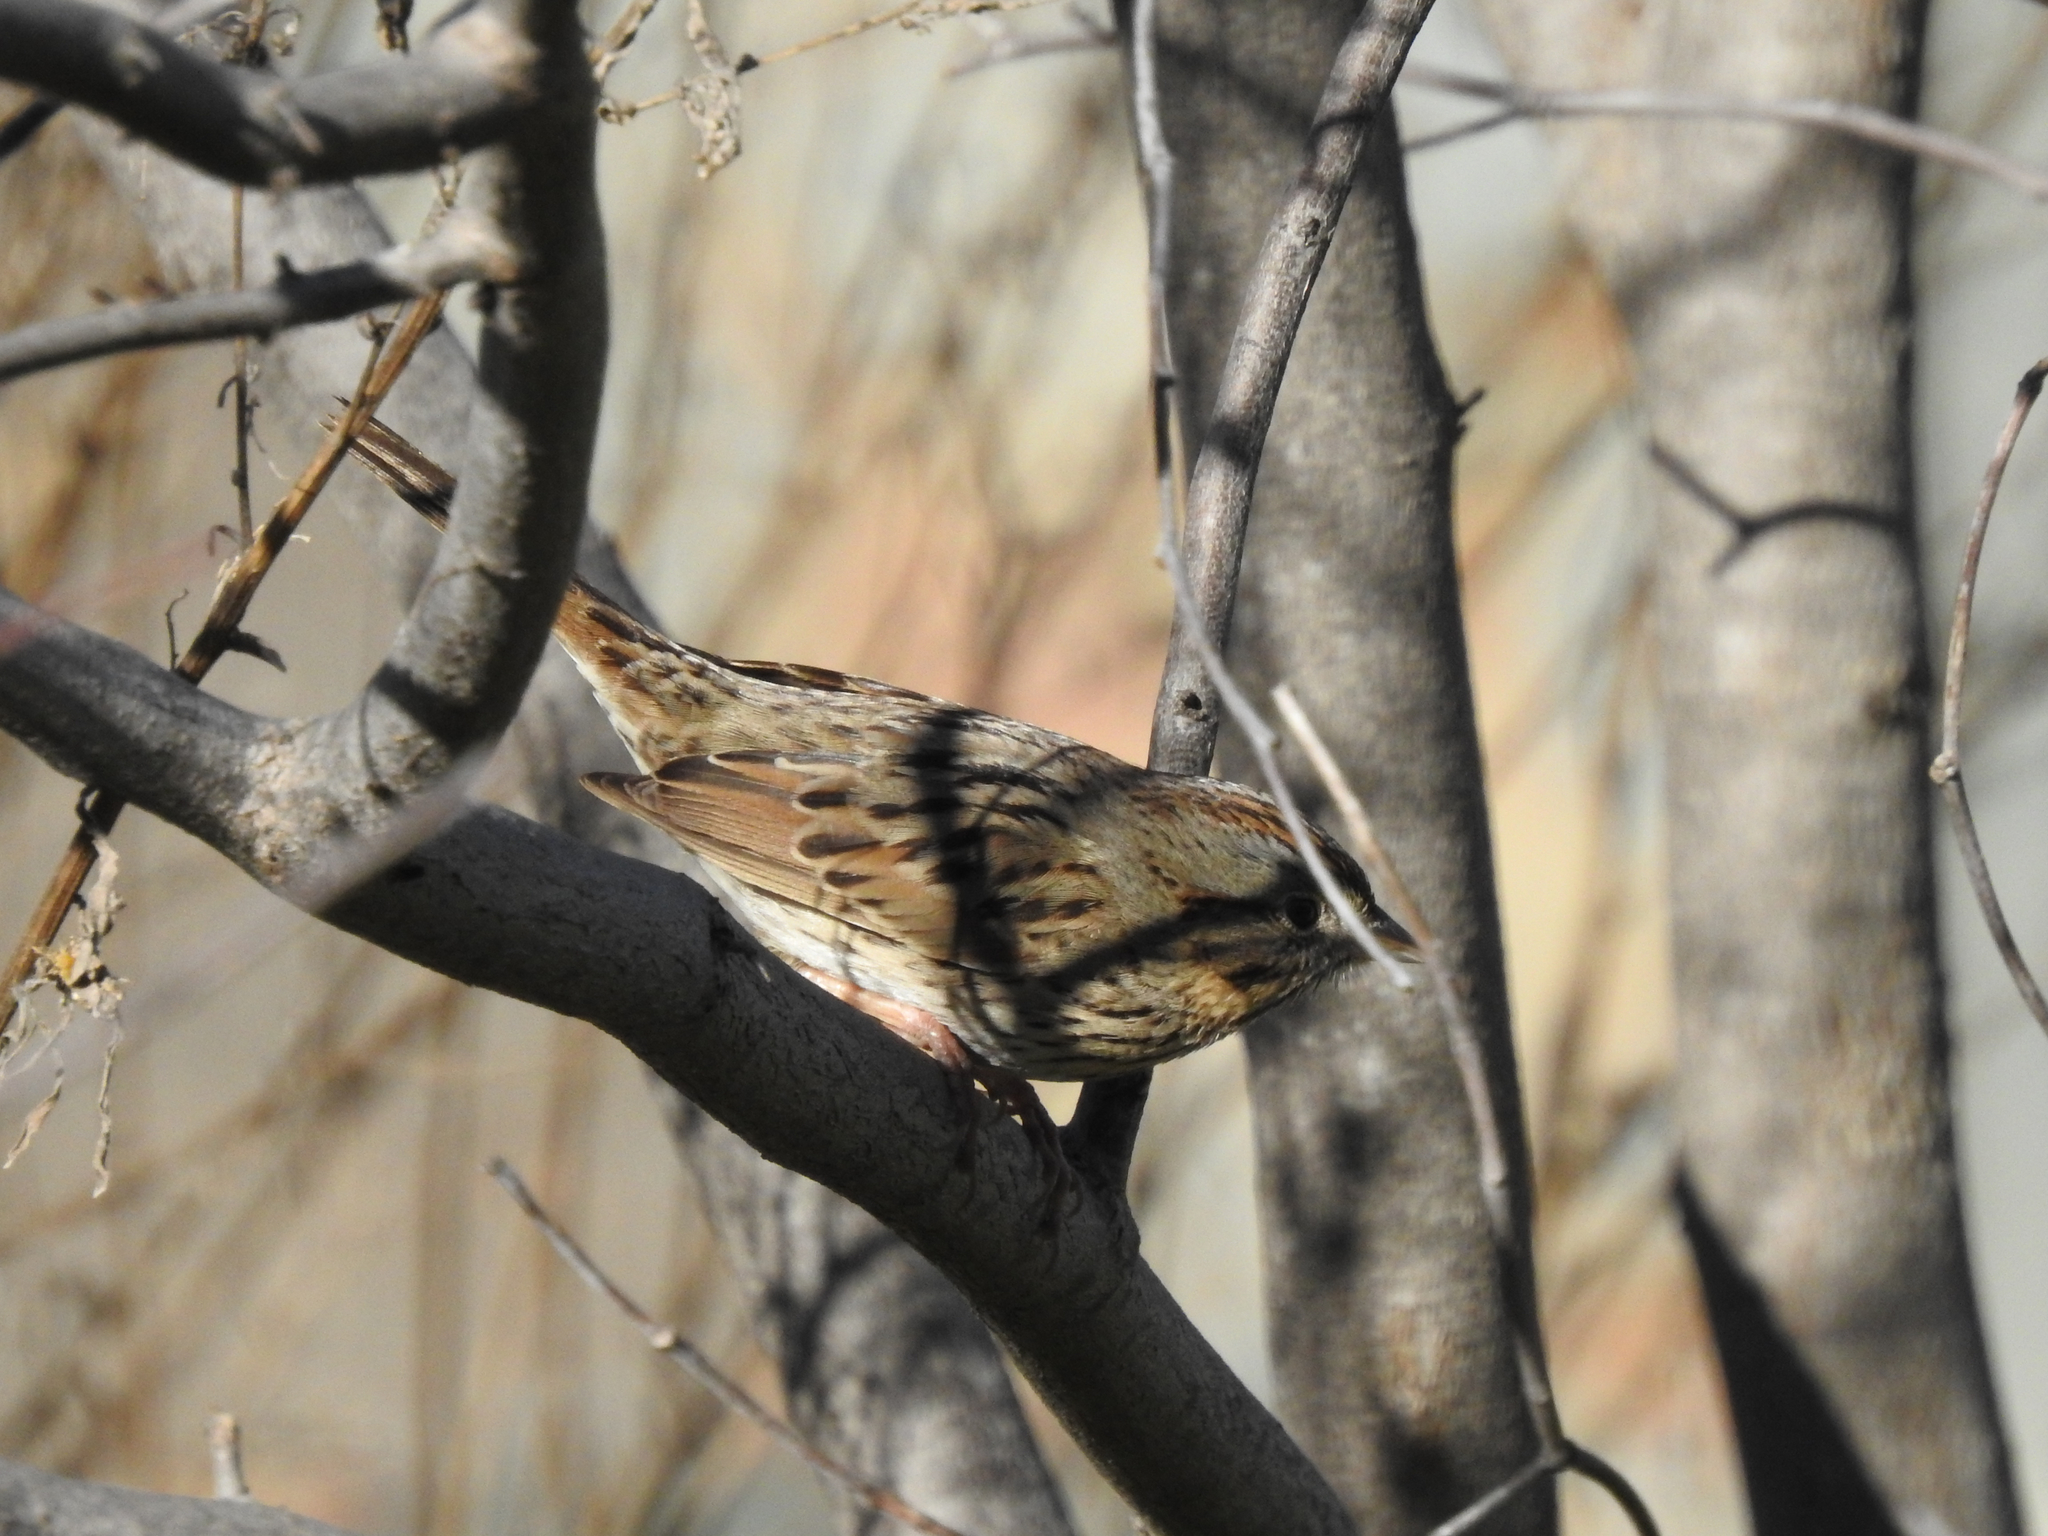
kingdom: Animalia
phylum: Chordata
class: Aves
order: Passeriformes
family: Passerellidae
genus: Melospiza
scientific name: Melospiza lincolnii
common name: Lincoln's sparrow
